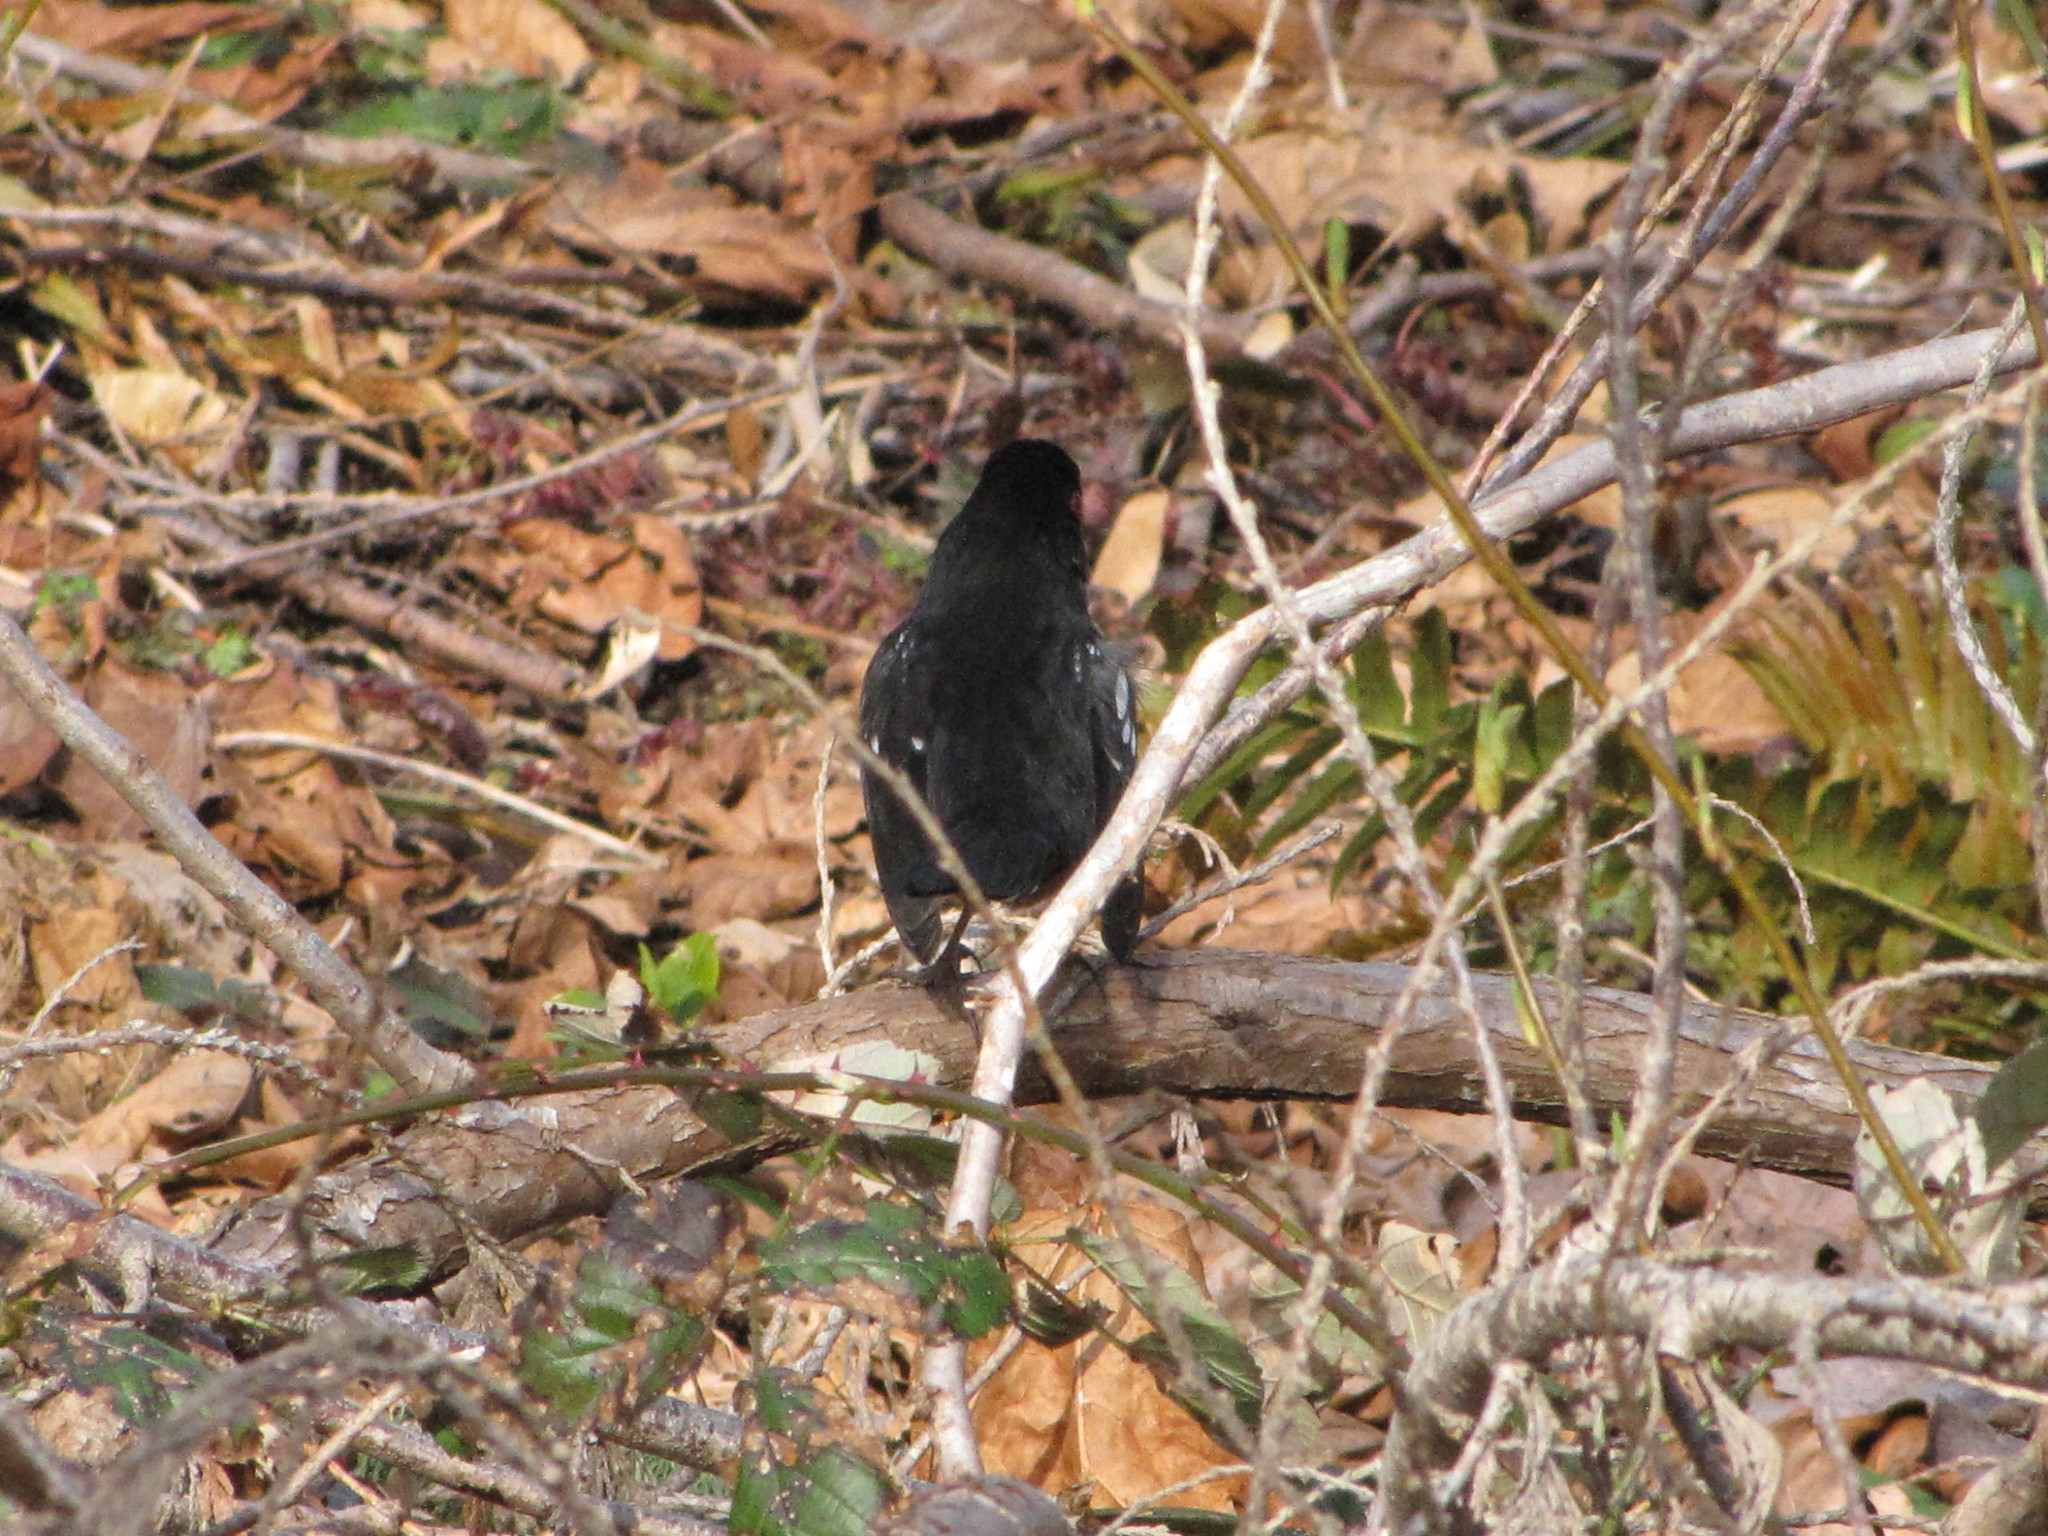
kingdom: Animalia
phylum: Chordata
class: Aves
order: Passeriformes
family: Passerellidae
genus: Pipilo
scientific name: Pipilo maculatus
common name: Spotted towhee
